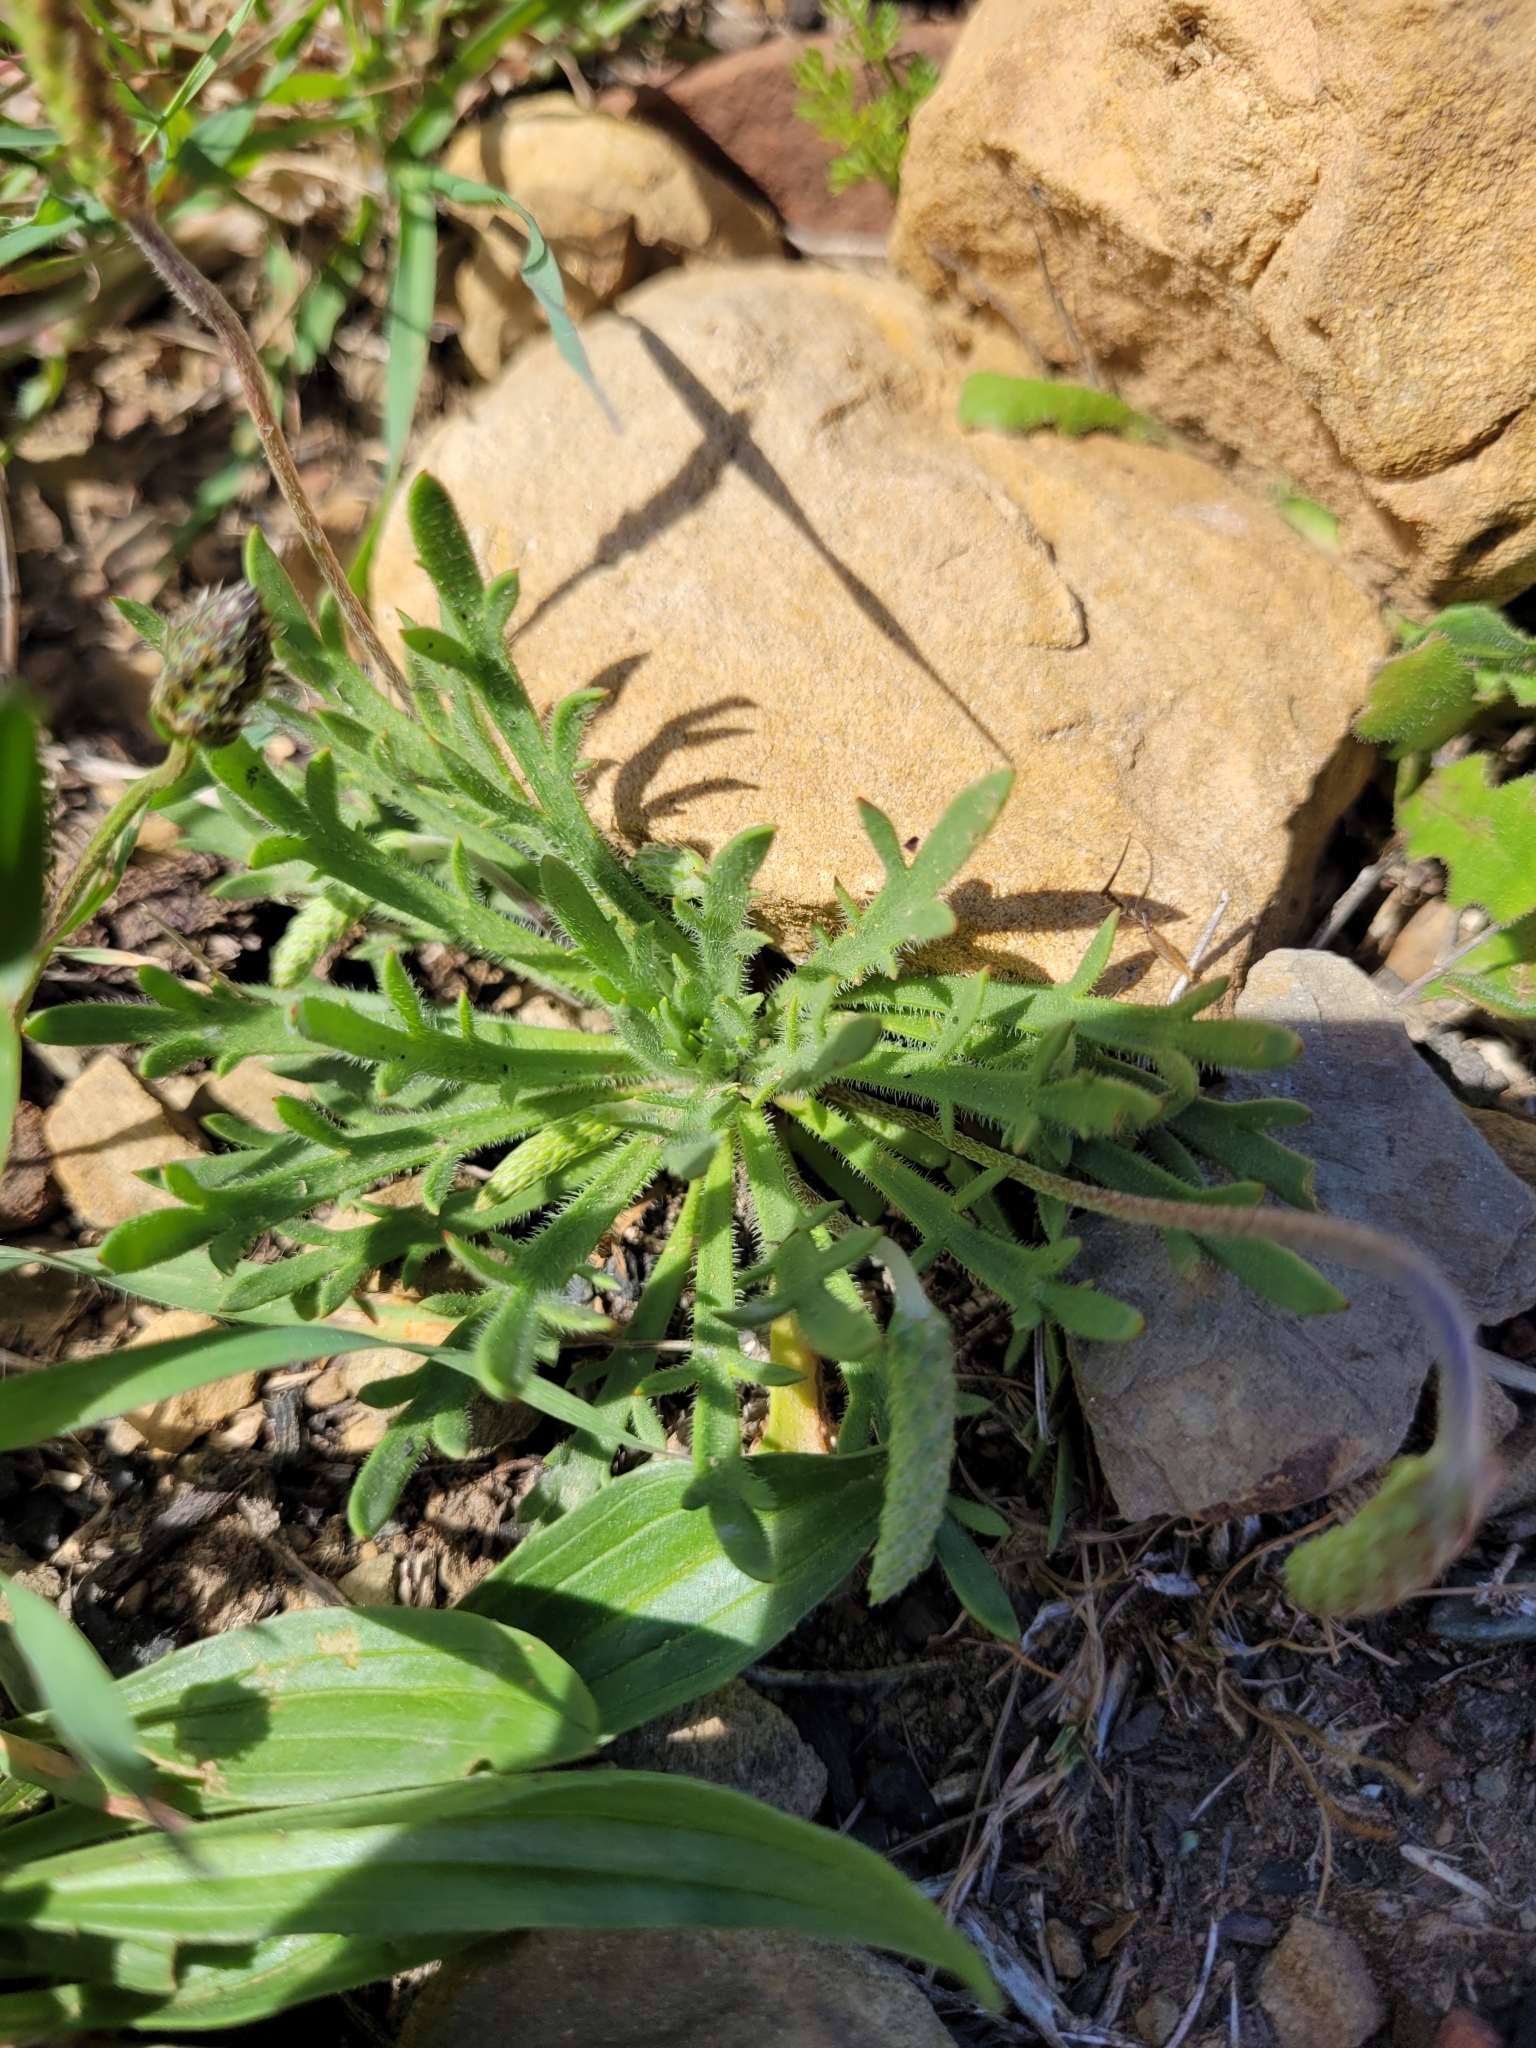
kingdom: Plantae
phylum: Tracheophyta
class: Magnoliopsida
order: Lamiales
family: Plantaginaceae
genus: Plantago
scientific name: Plantago coronopus
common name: Buck's-horn plantain
